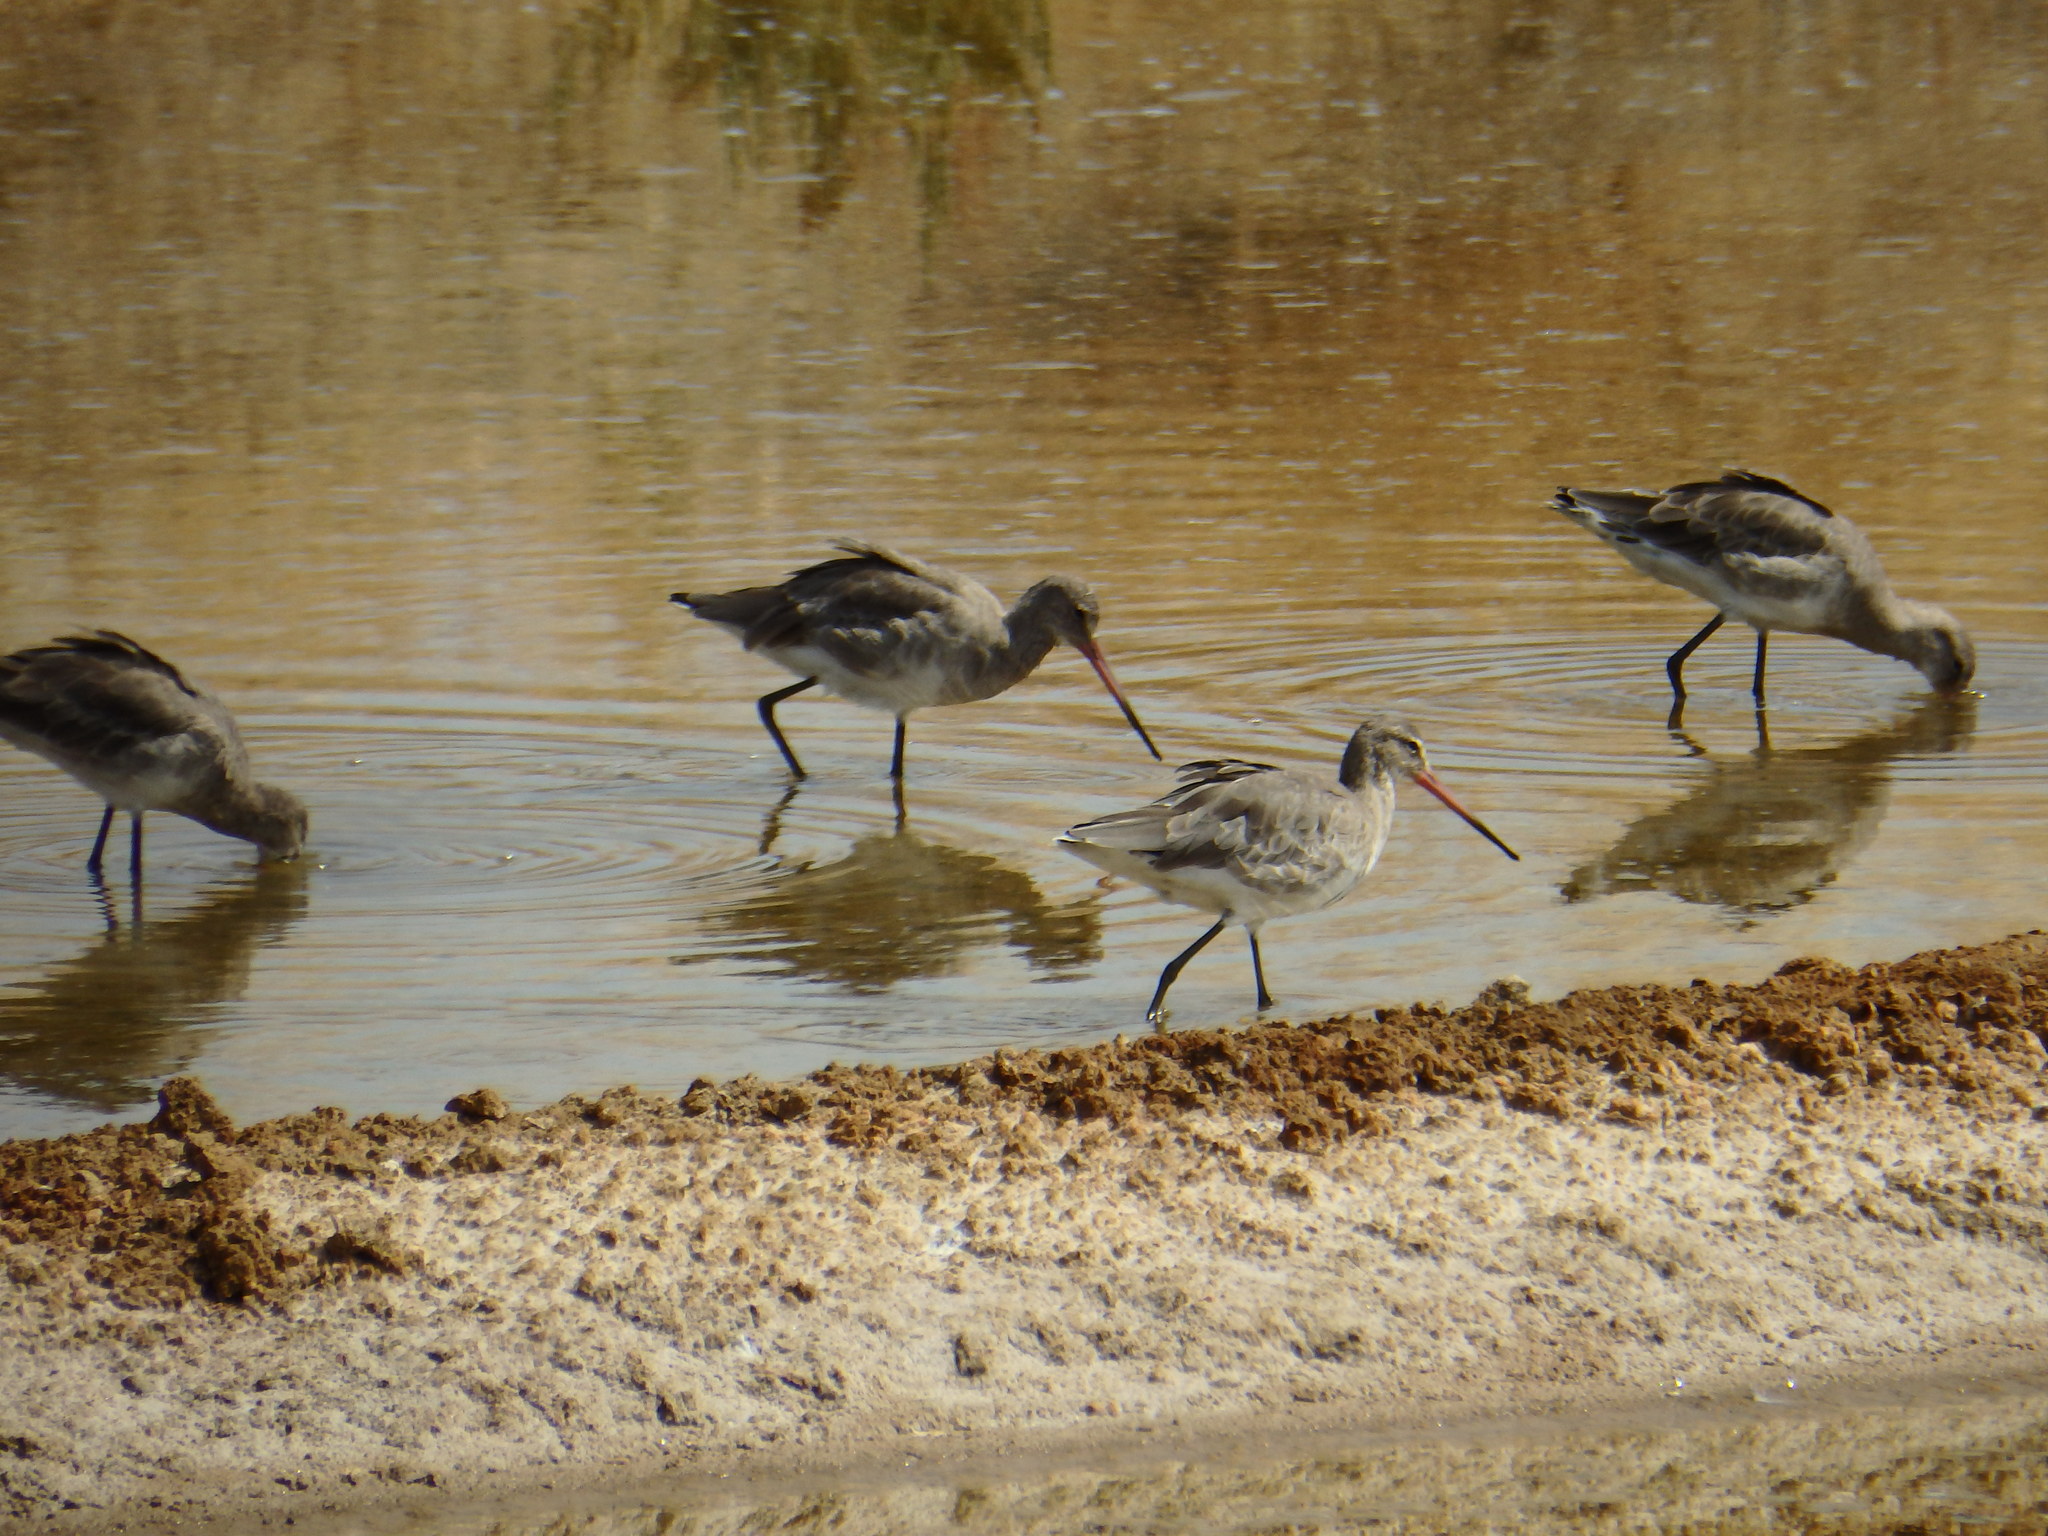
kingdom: Animalia
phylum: Chordata
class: Aves
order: Charadriiformes
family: Scolopacidae
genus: Limosa
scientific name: Limosa limosa
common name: Black-tailed godwit
